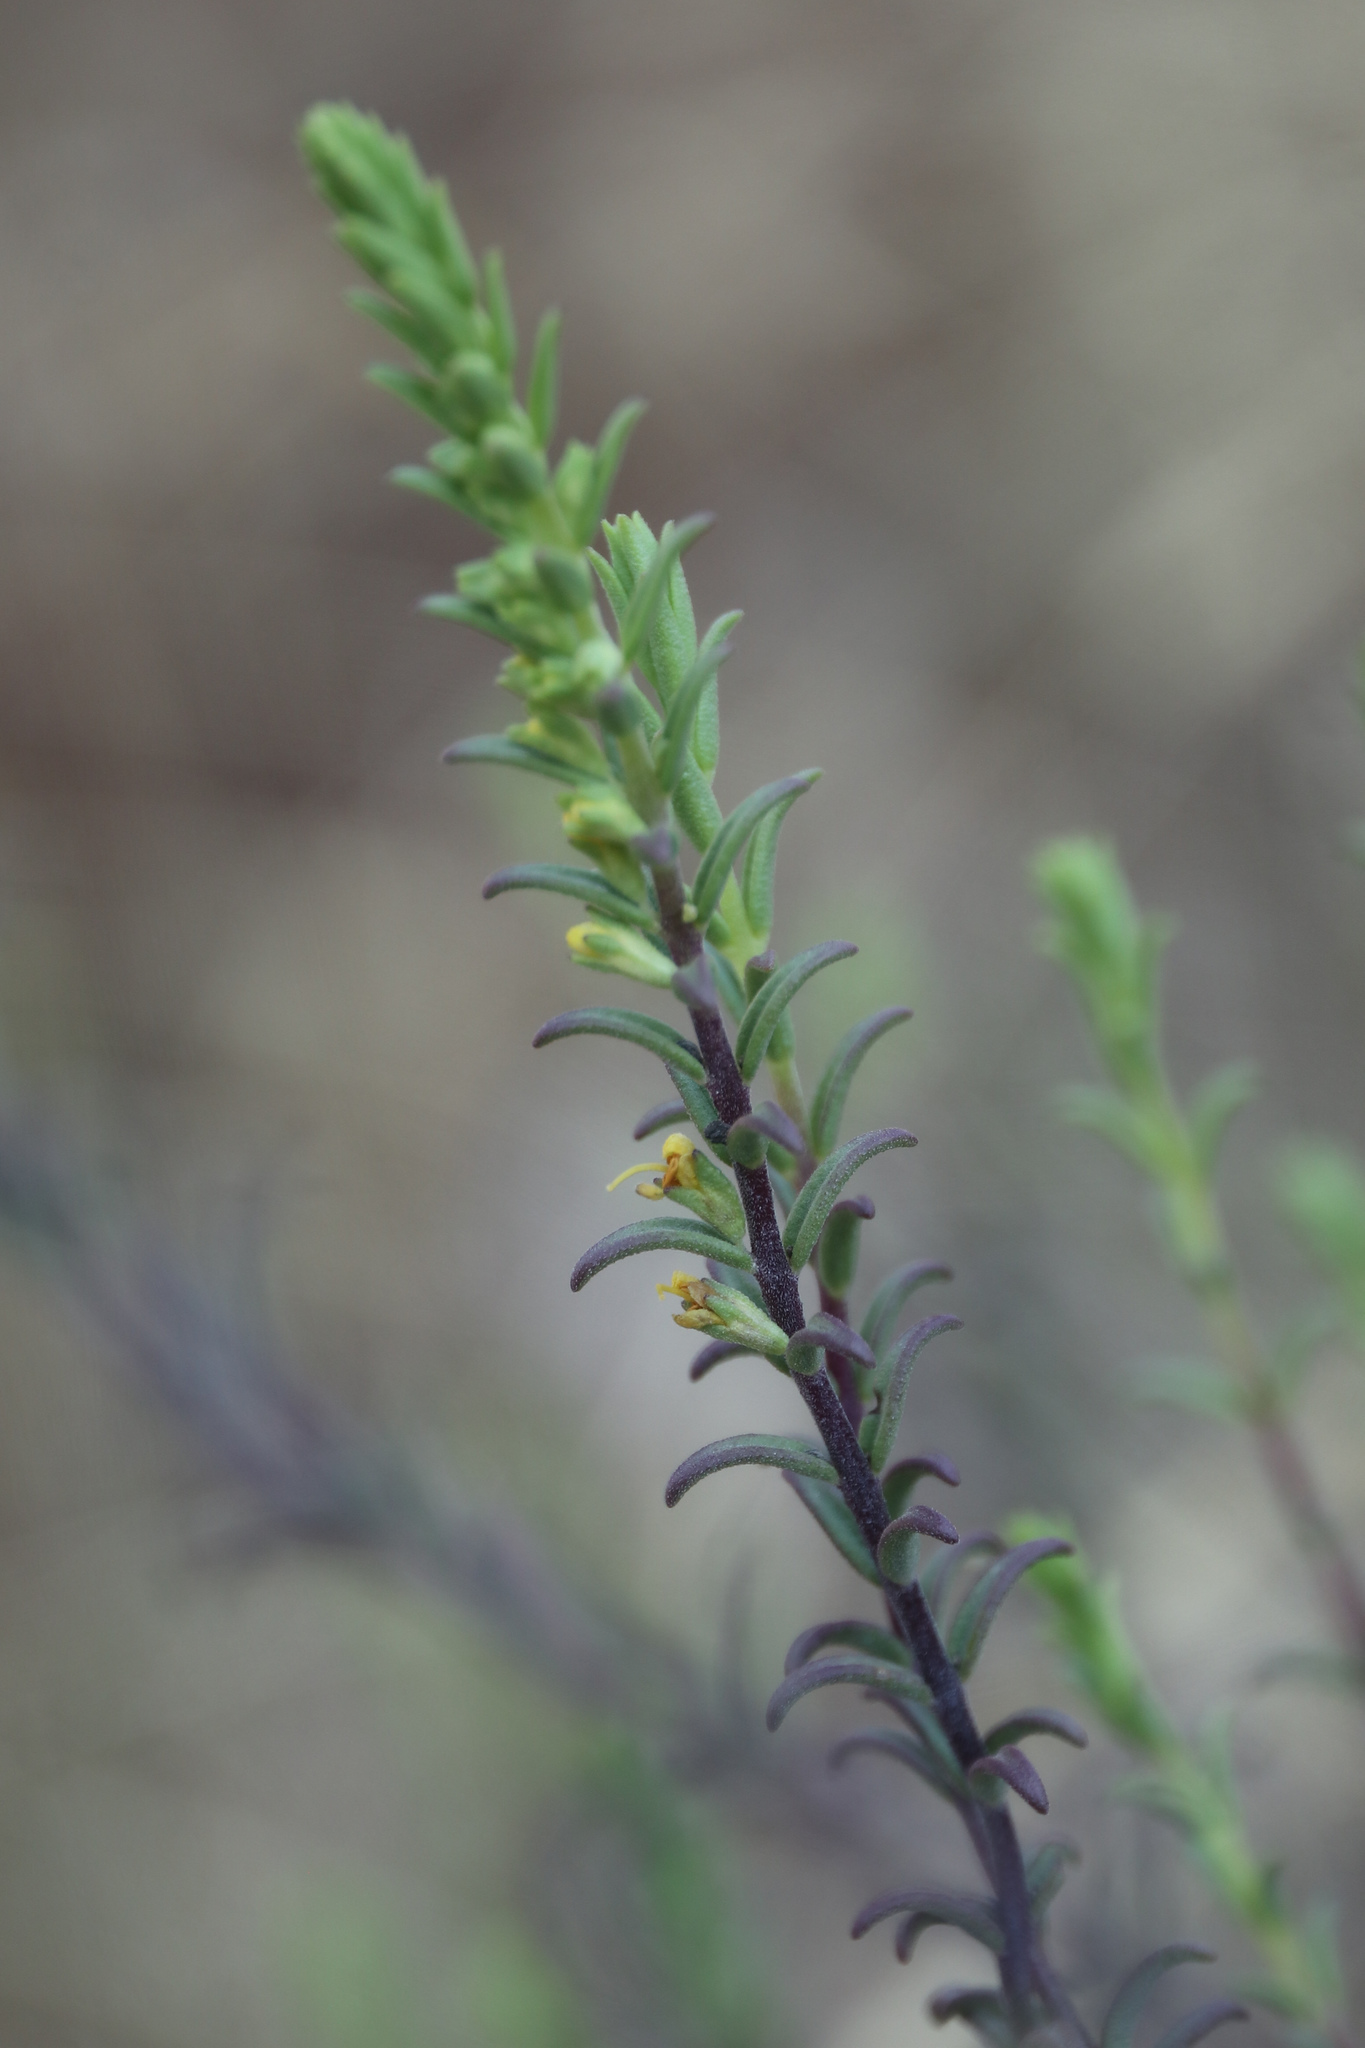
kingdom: Plantae
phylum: Tracheophyta
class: Magnoliopsida
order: Lamiales
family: Orobanchaceae
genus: Odontites
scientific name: Odontites luteus
